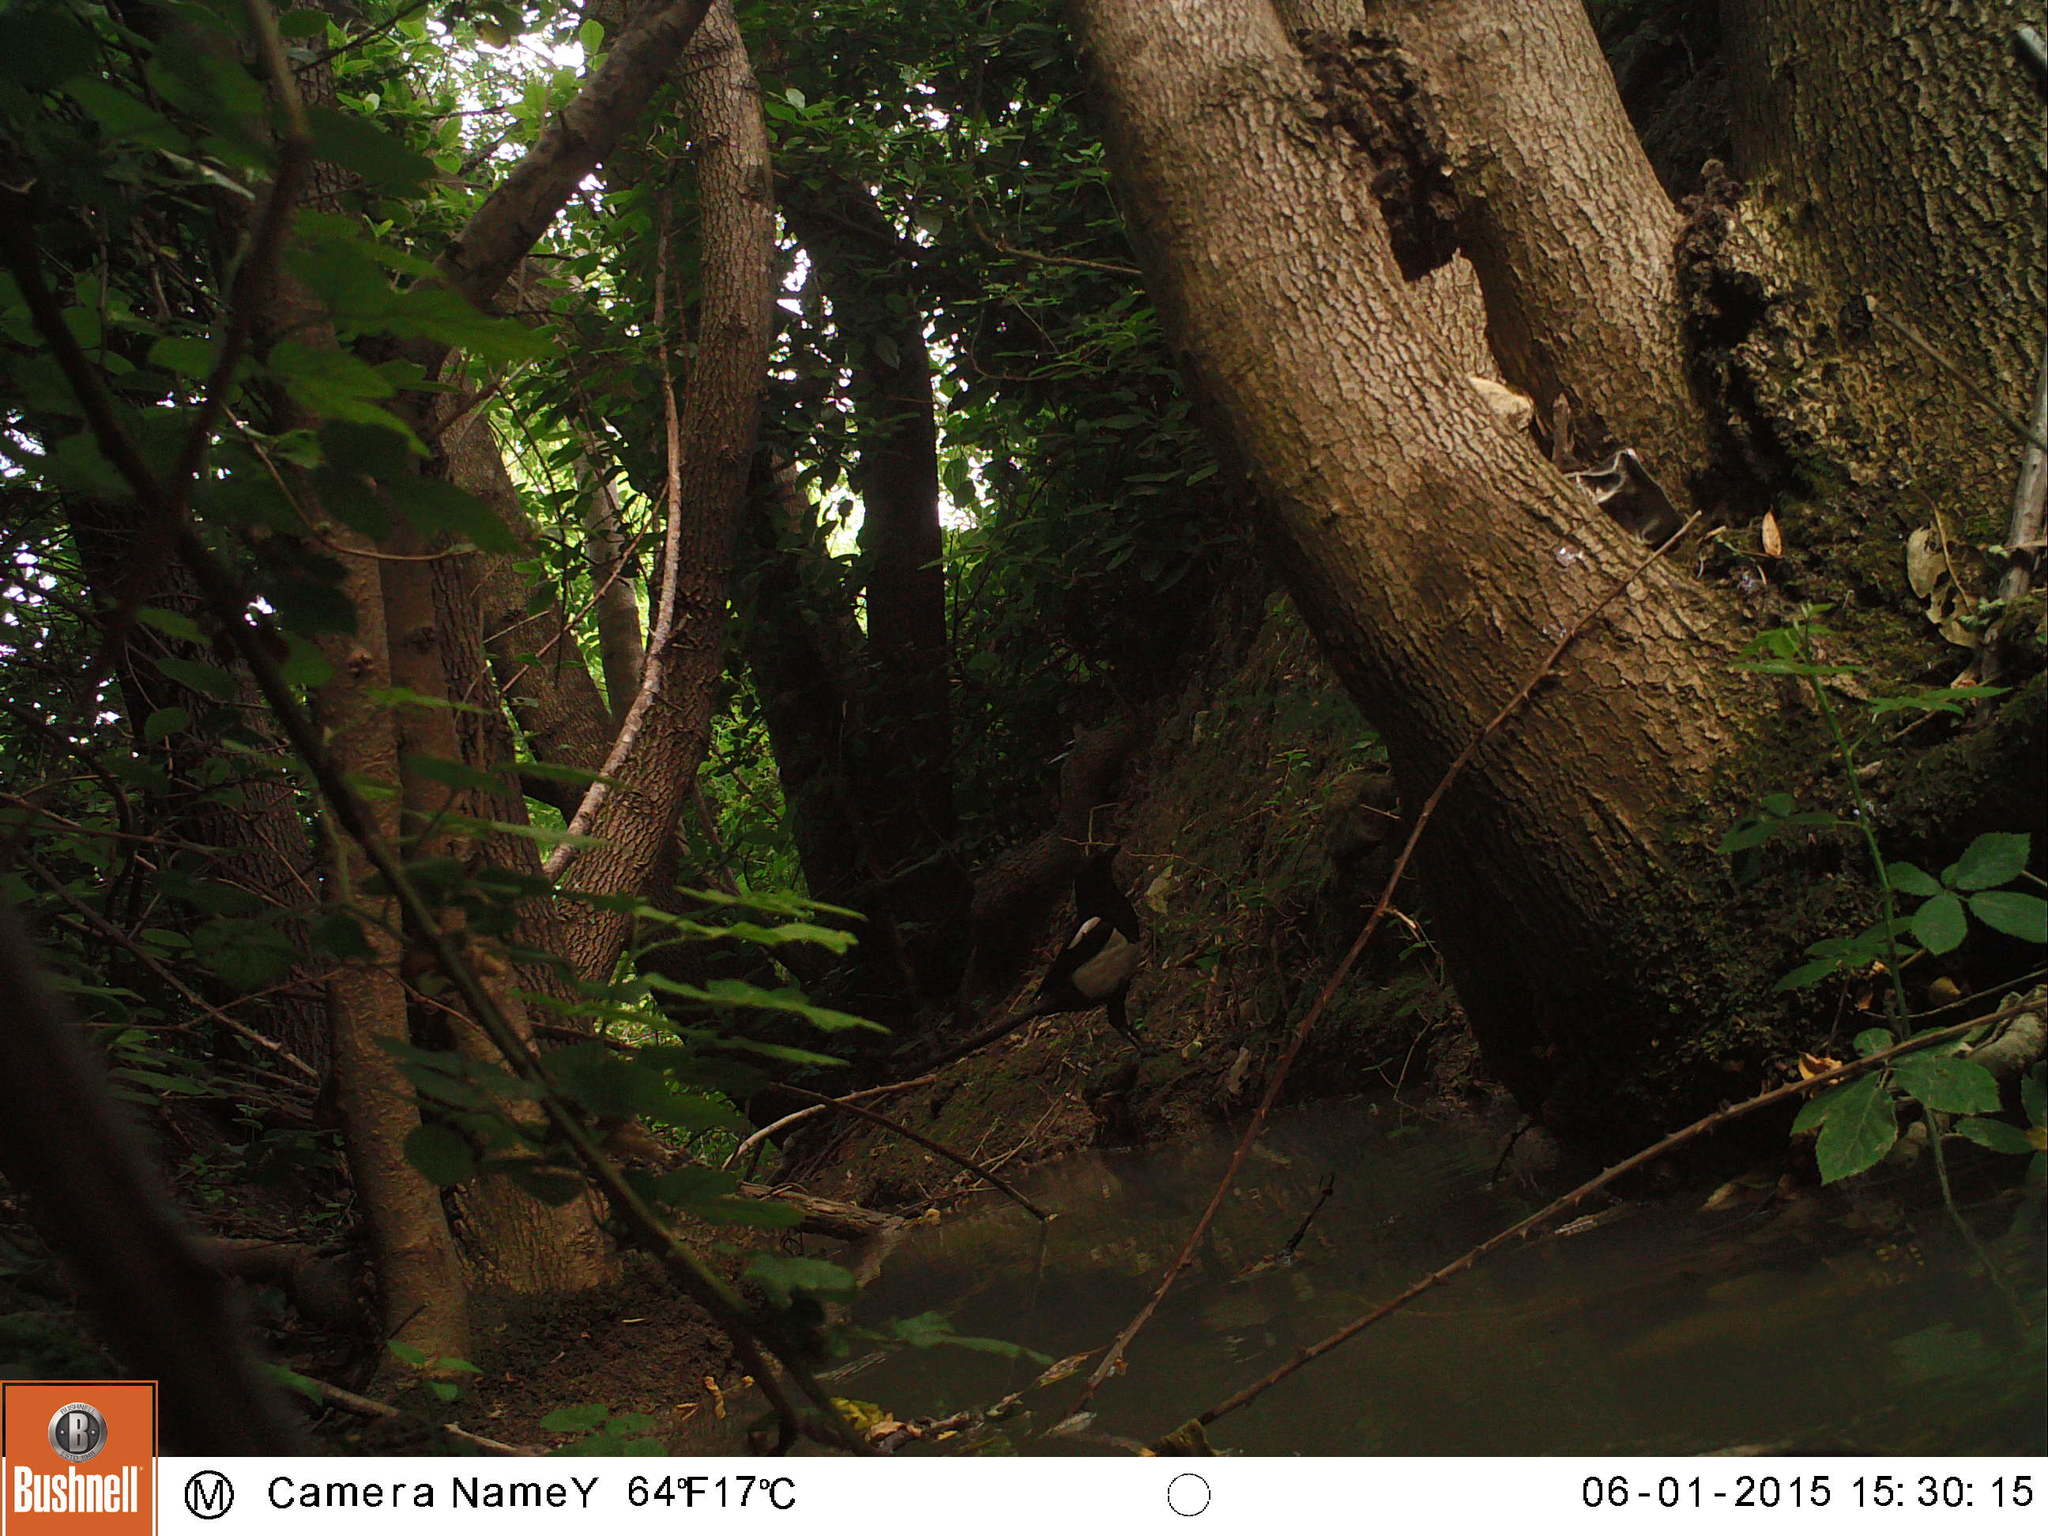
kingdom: Animalia
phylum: Chordata
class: Aves
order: Passeriformes
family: Corvidae
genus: Pica
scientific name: Pica pica
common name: Eurasian magpie
